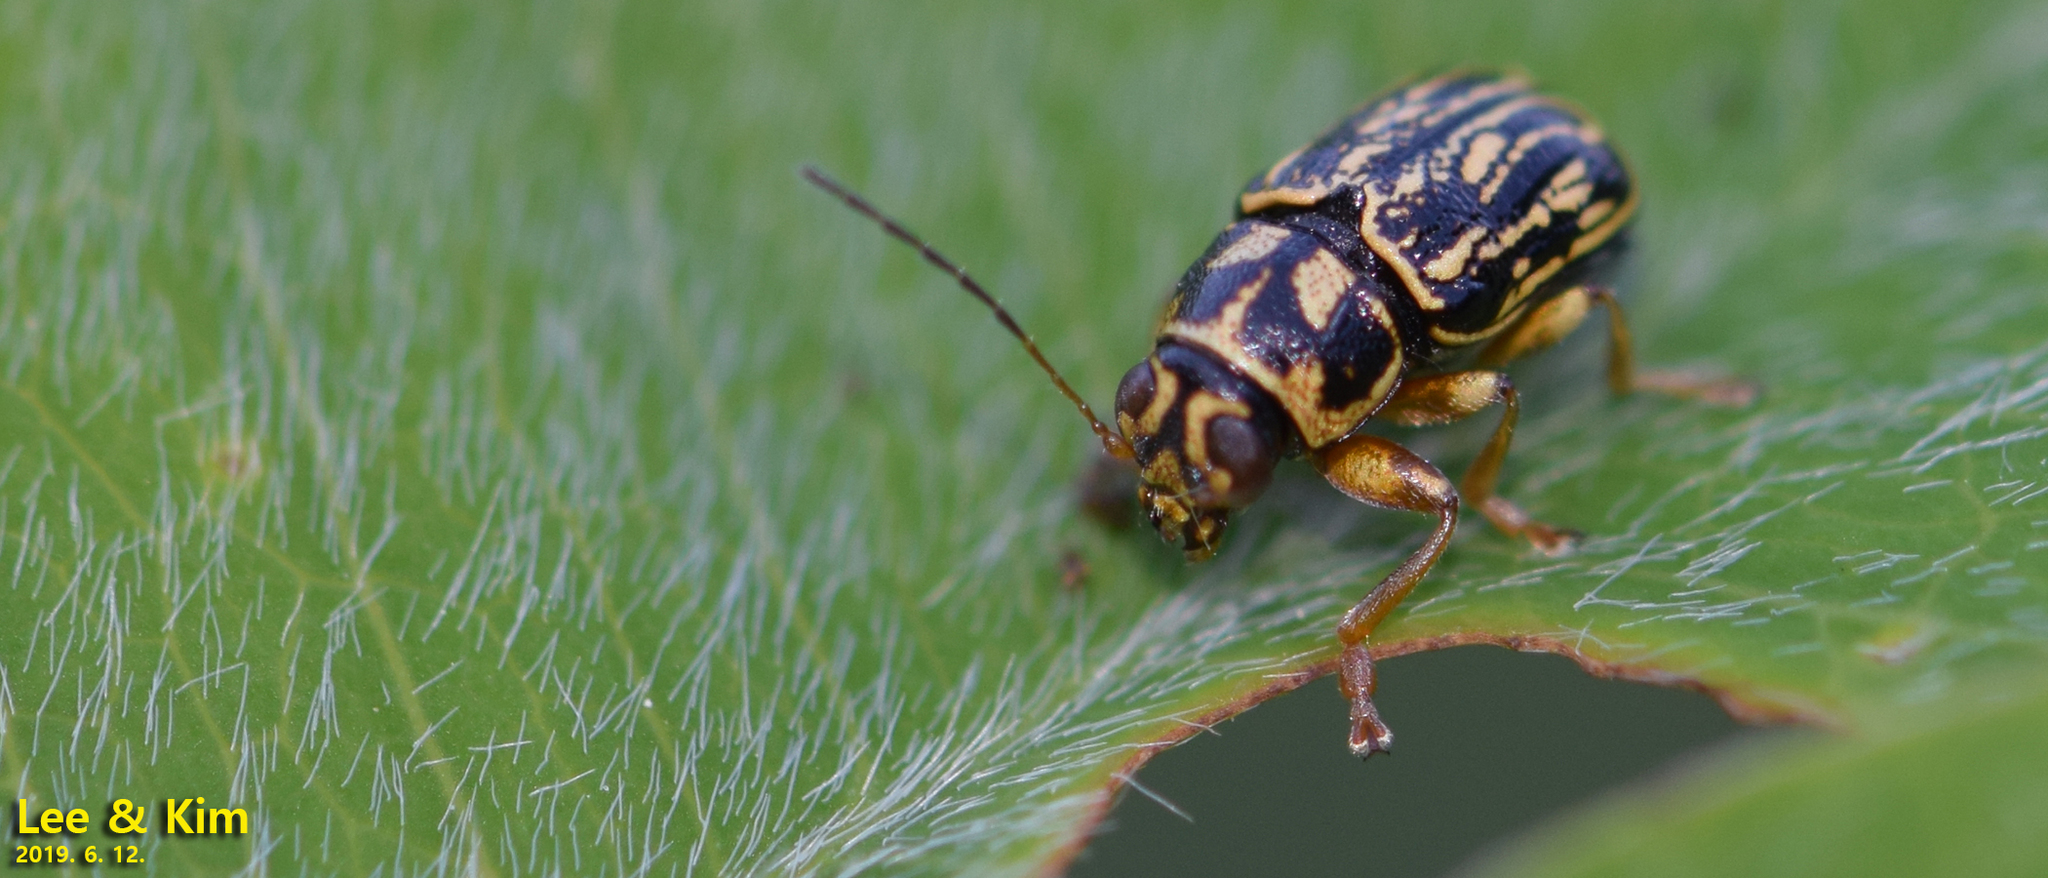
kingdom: Animalia
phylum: Arthropoda
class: Insecta
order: Coleoptera
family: Chrysomelidae
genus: Pachybrachis
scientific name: Pachybrachis
